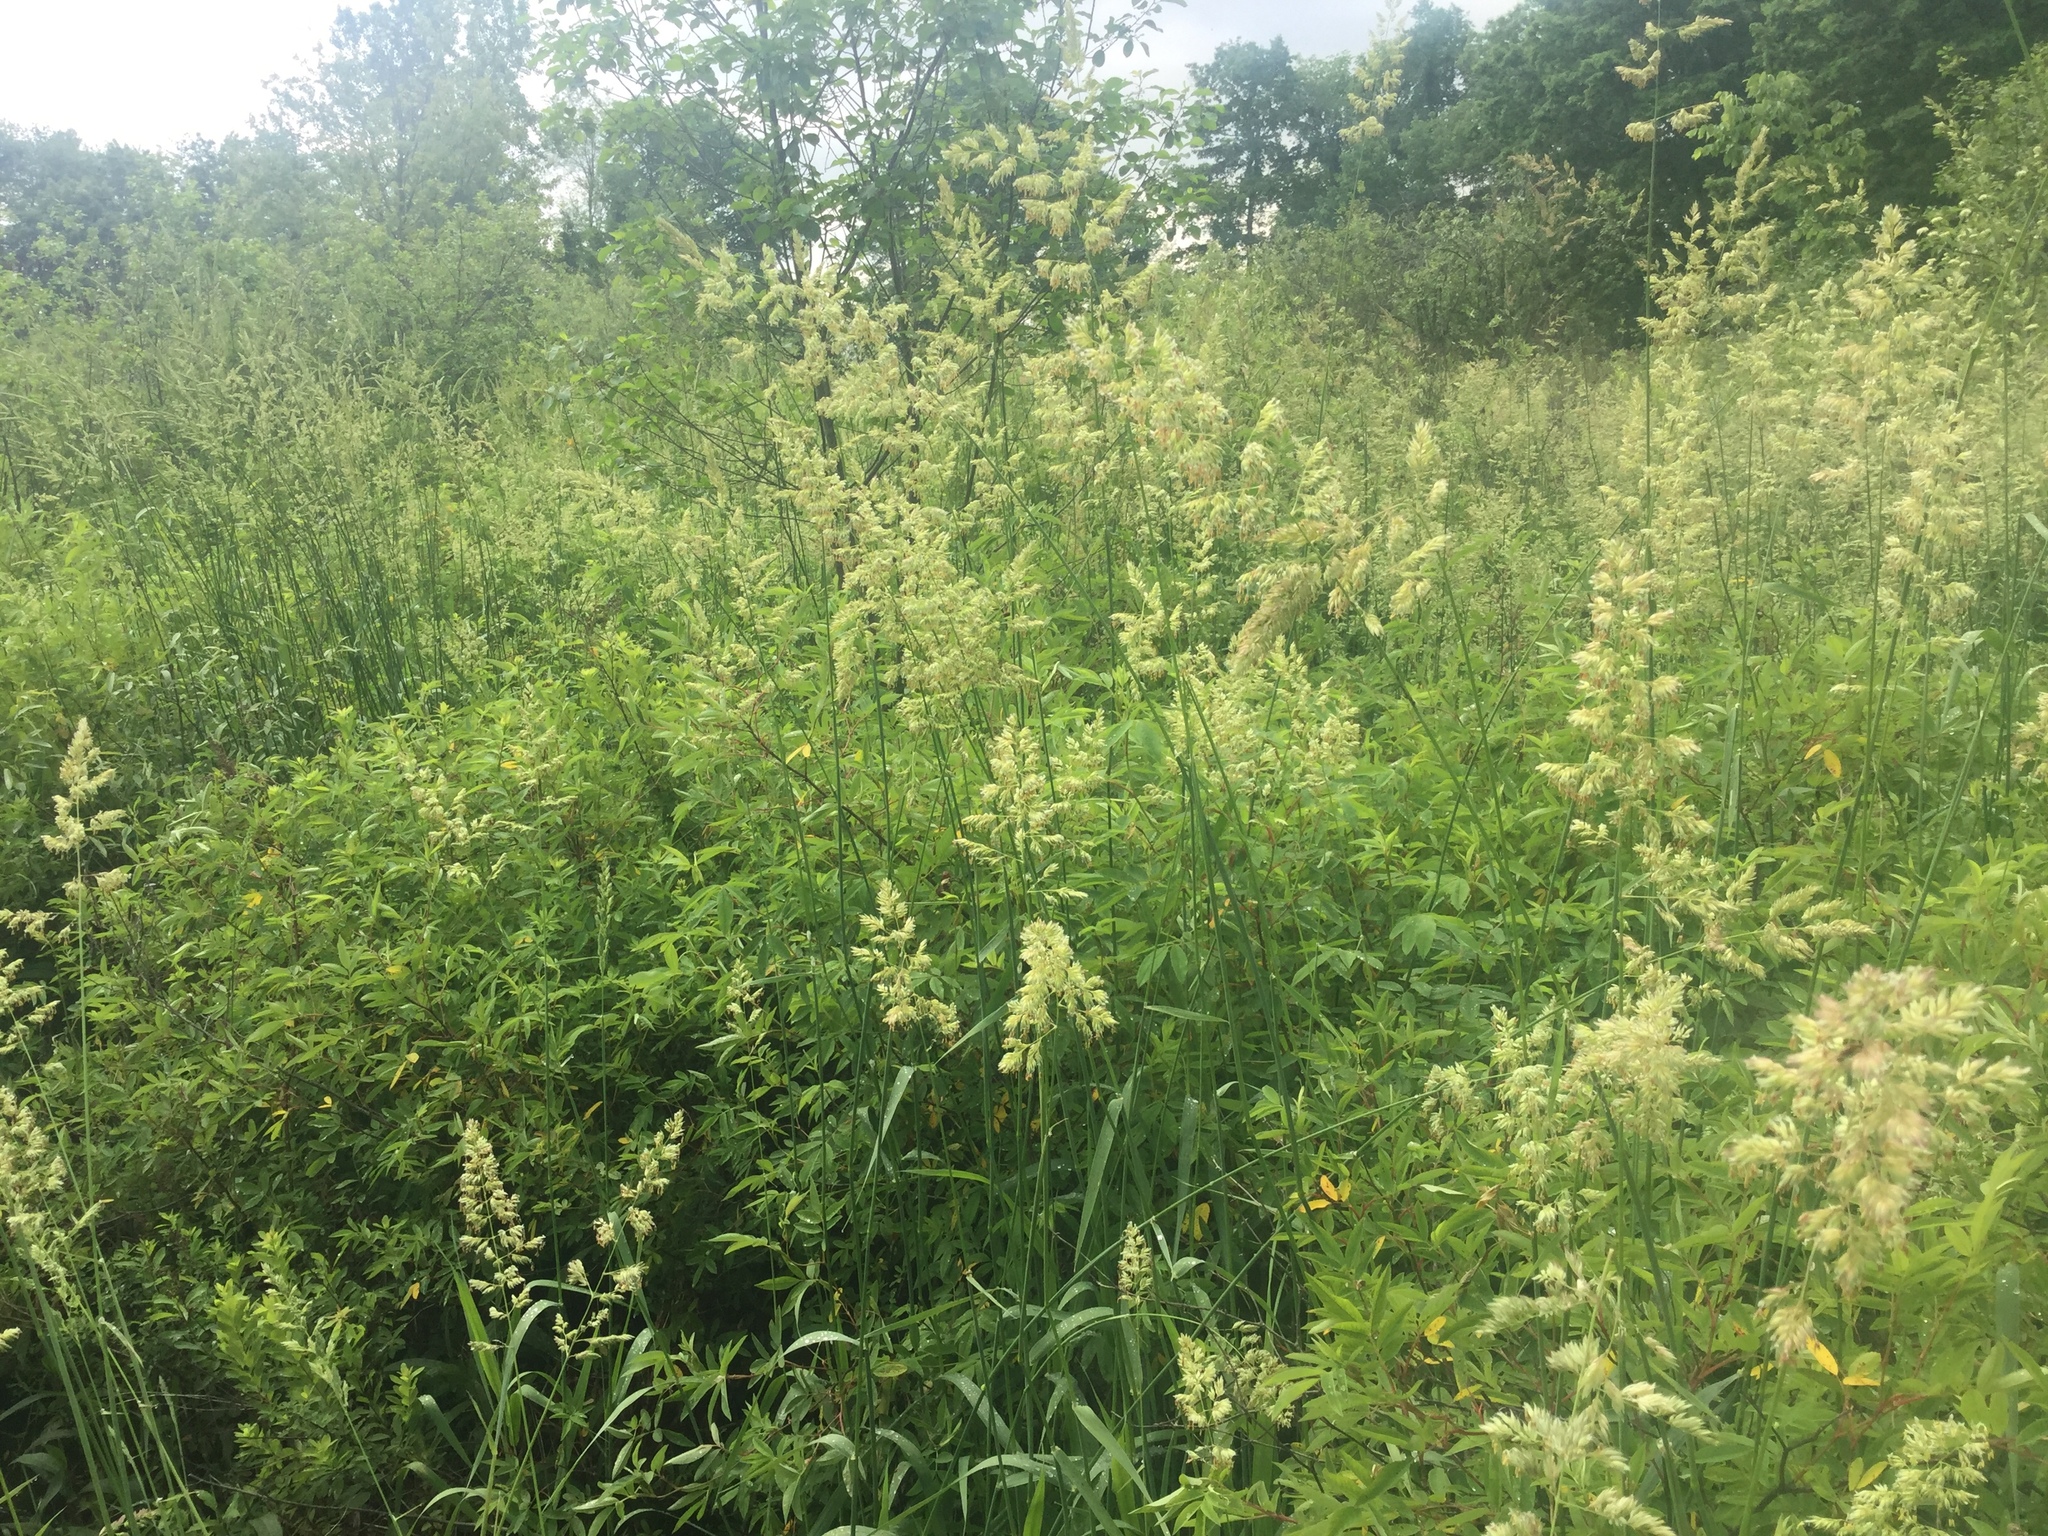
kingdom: Plantae
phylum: Tracheophyta
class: Liliopsida
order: Poales
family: Poaceae
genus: Phalaris
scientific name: Phalaris arundinacea
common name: Reed canary-grass
